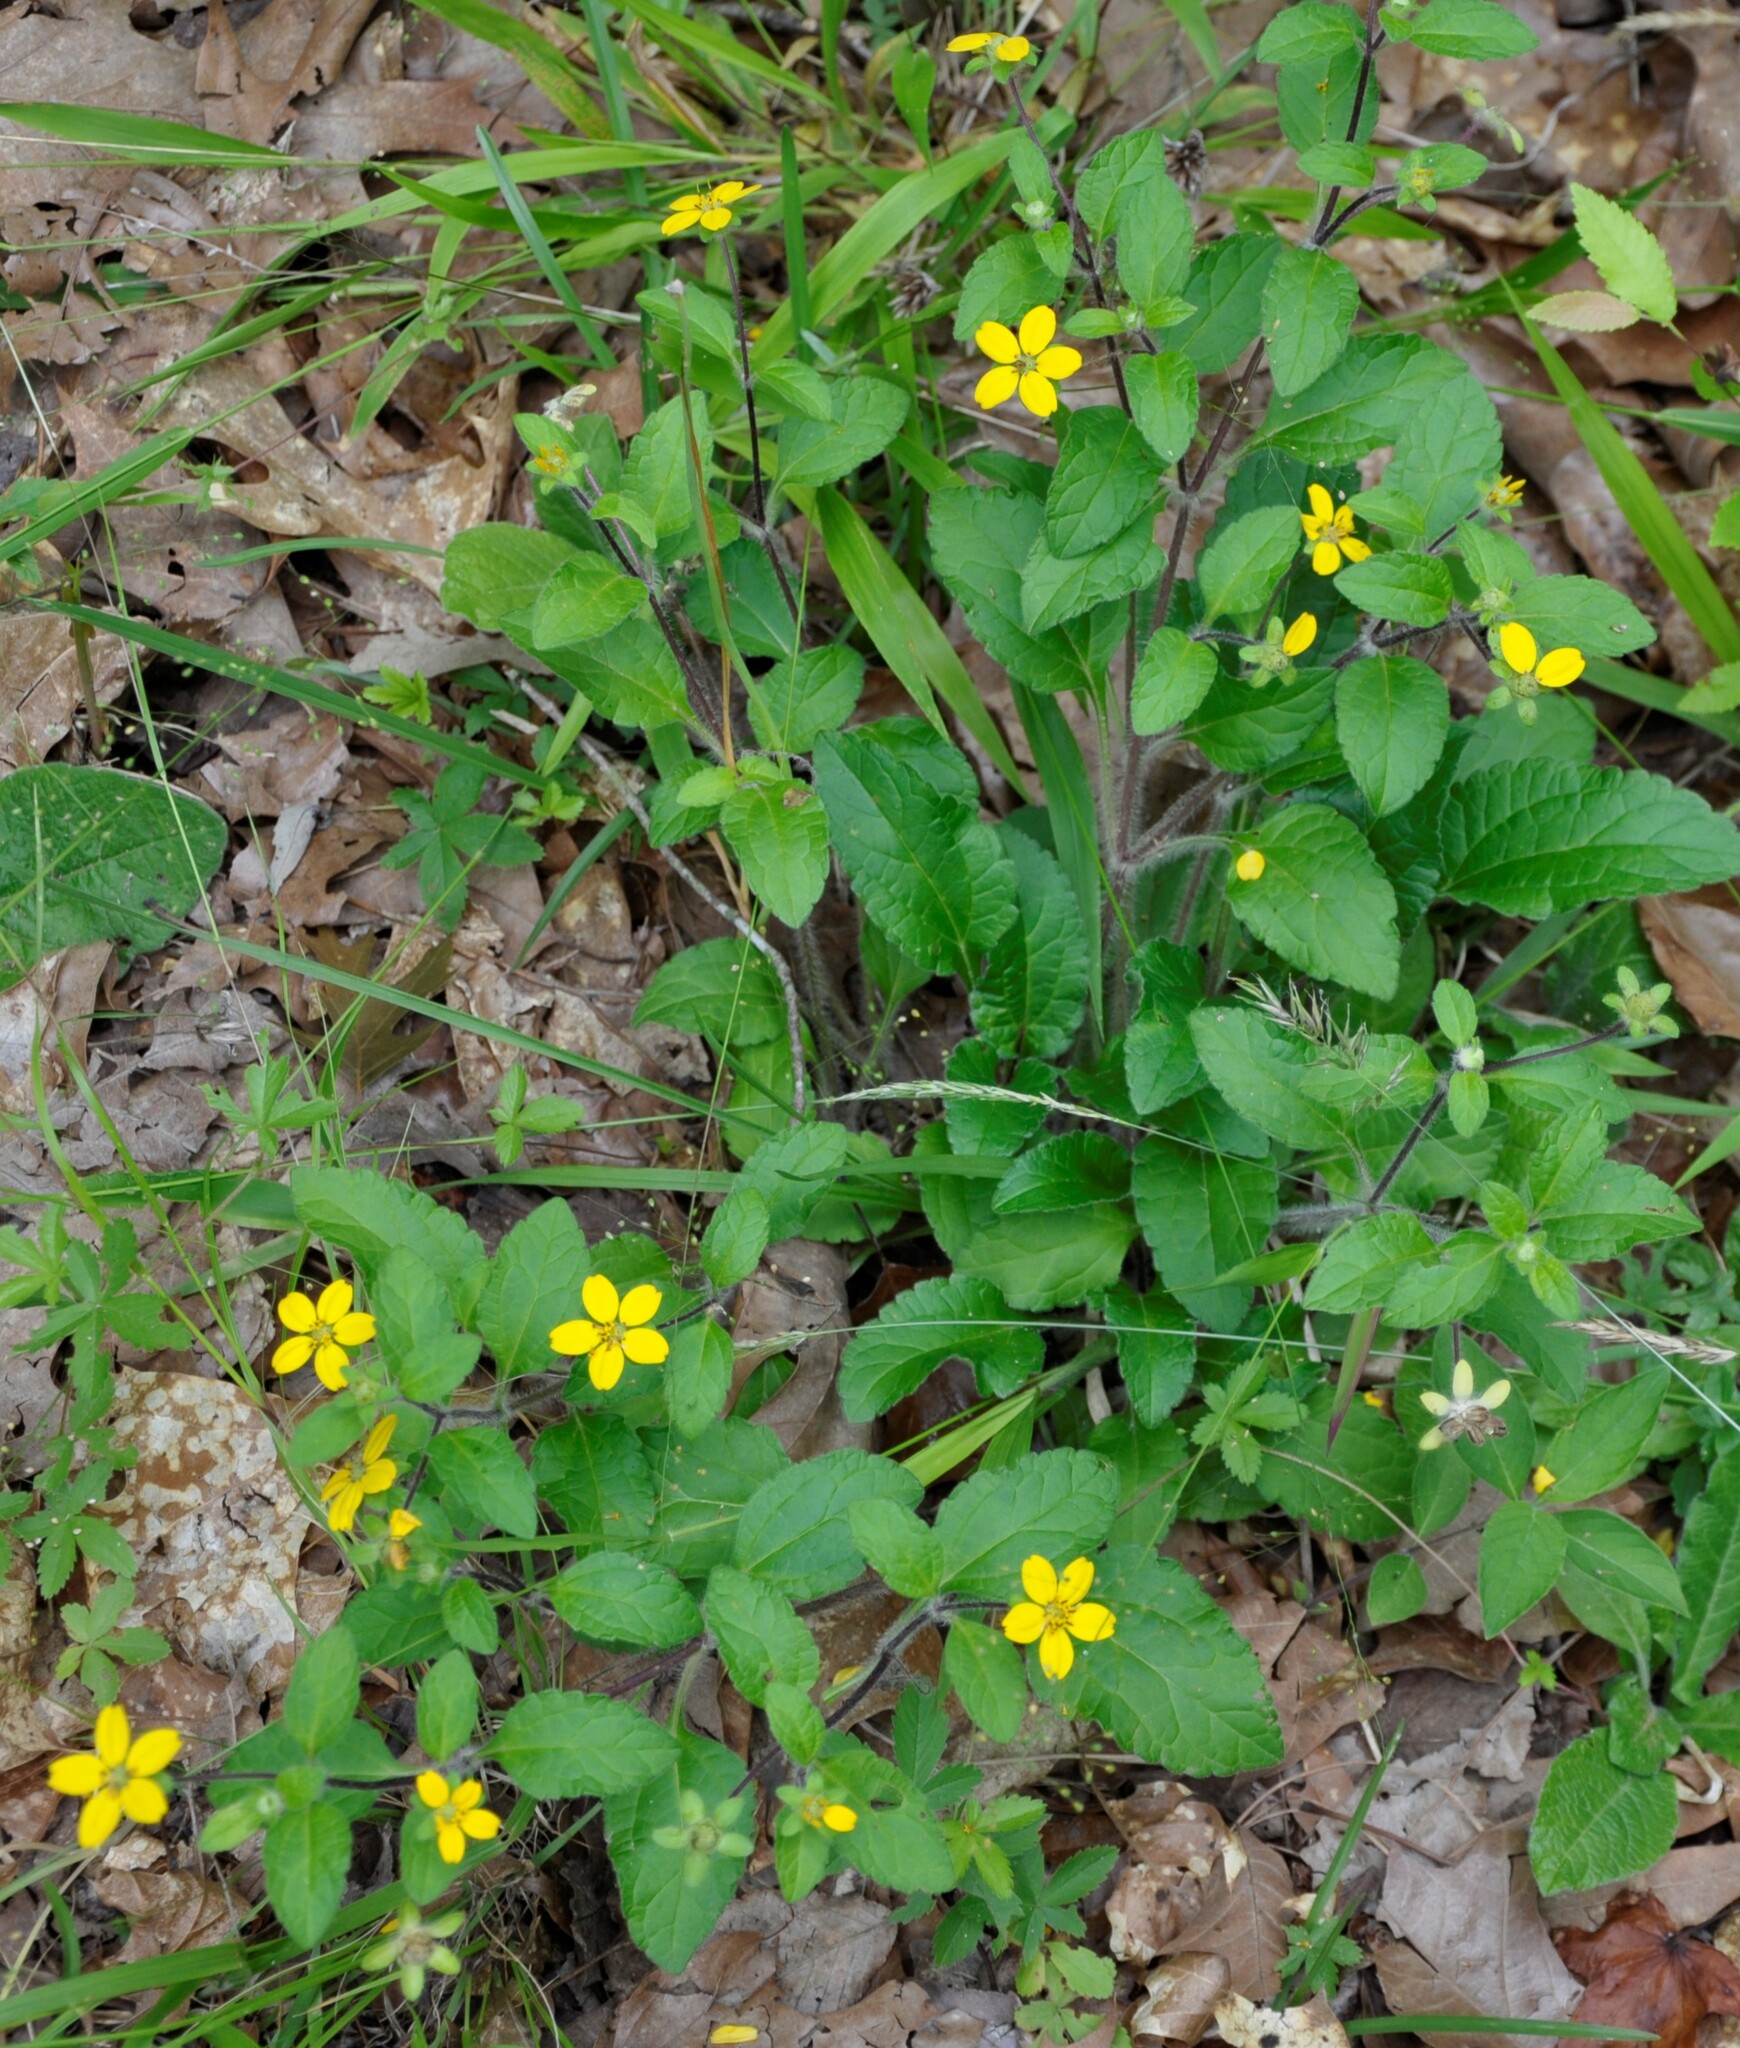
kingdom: Plantae
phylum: Tracheophyta
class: Magnoliopsida
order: Asterales
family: Asteraceae
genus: Chrysogonum
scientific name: Chrysogonum virginianum
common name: Golden-knee
